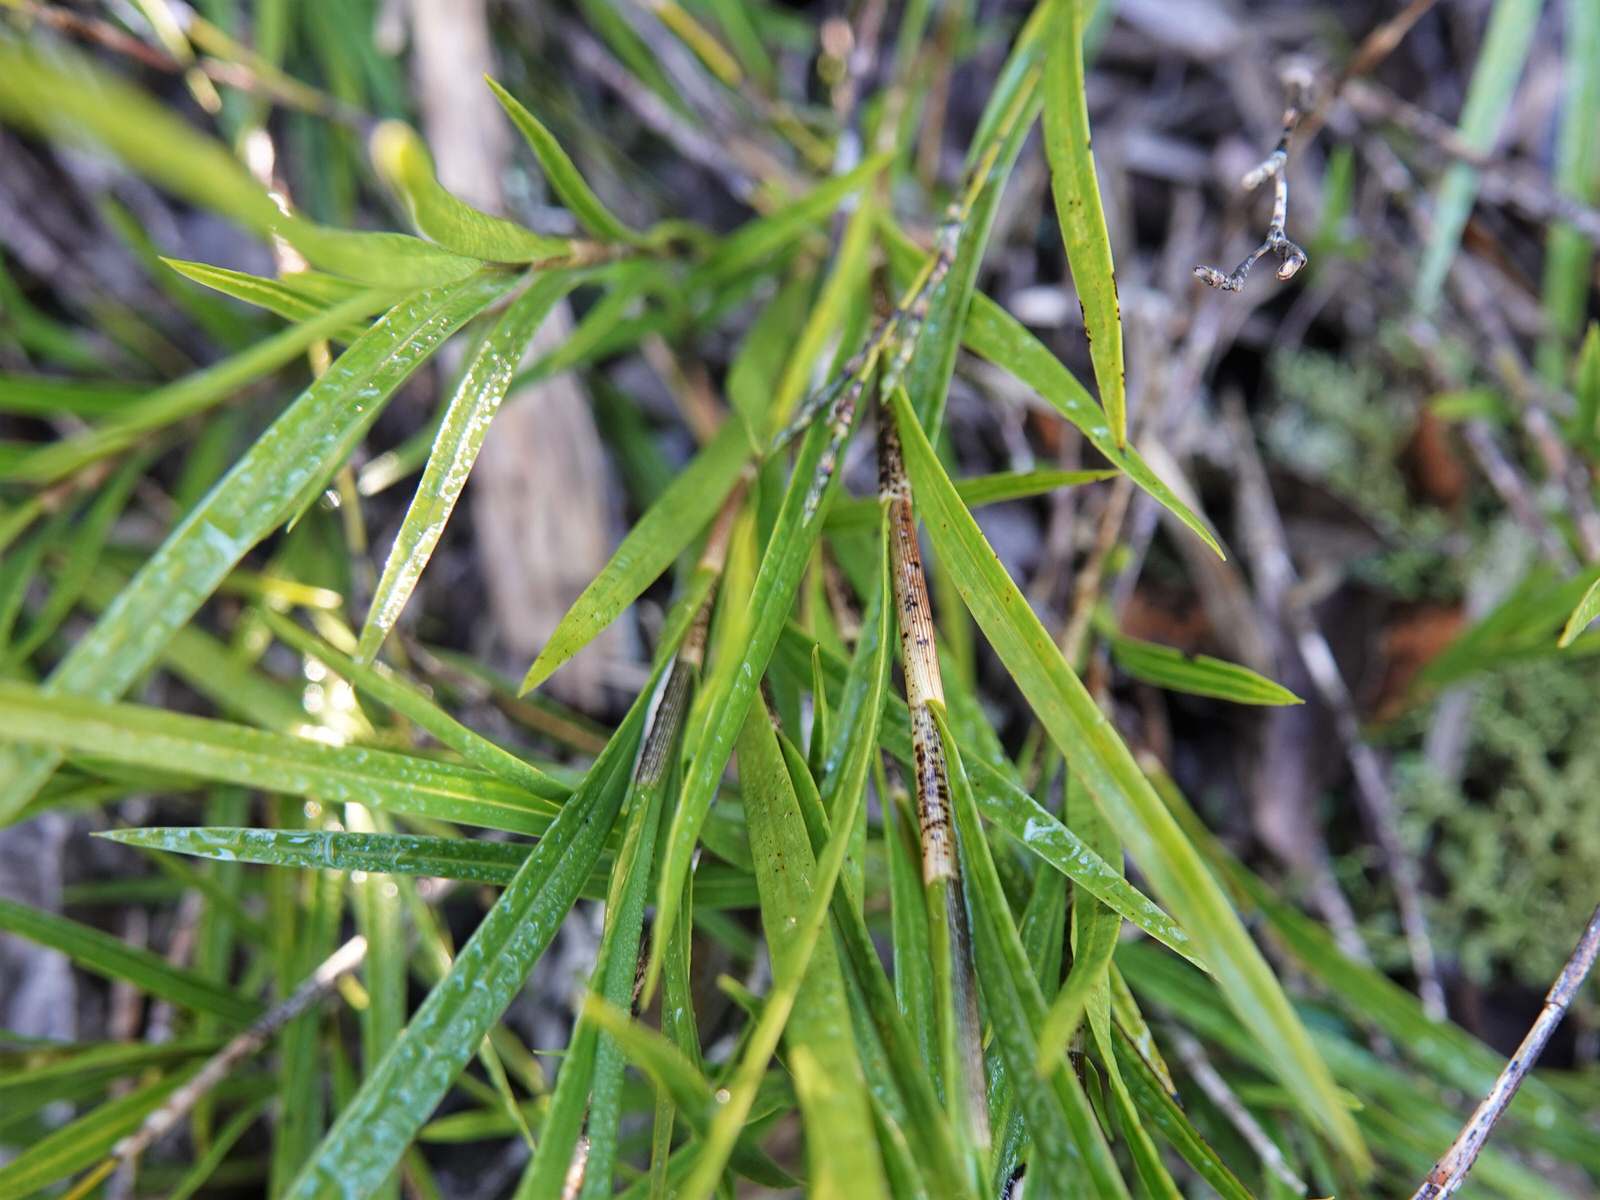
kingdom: Plantae
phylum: Tracheophyta
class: Liliopsida
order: Asparagales
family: Orchidaceae
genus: Earina
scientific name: Earina mucronata
